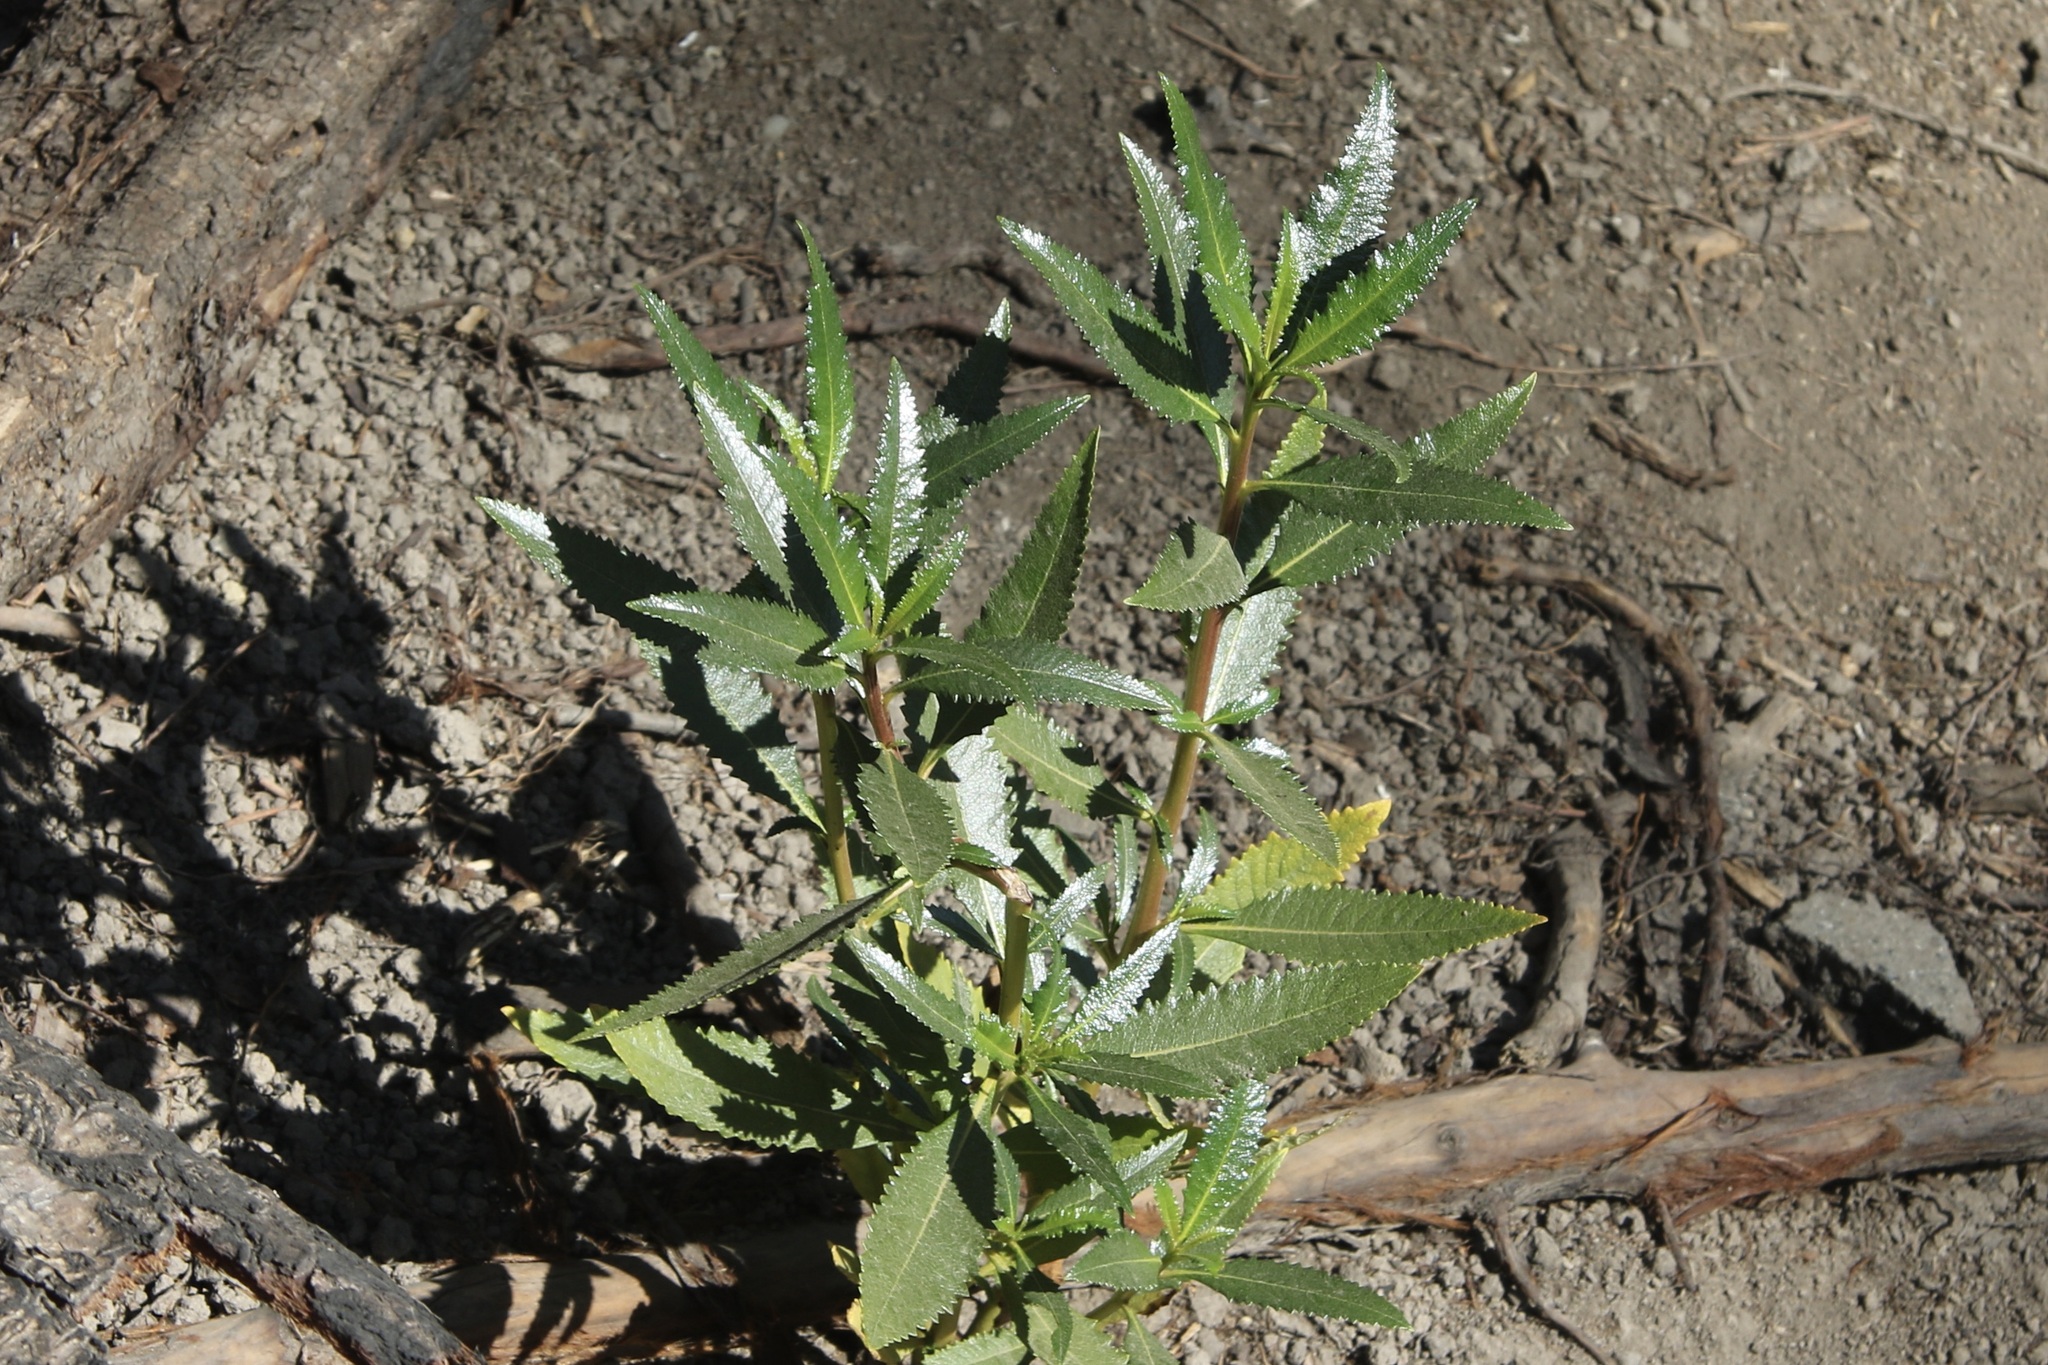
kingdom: Plantae
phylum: Tracheophyta
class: Magnoliopsida
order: Boraginales
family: Namaceae
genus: Eriodictyon
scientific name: Eriodictyon californicum
